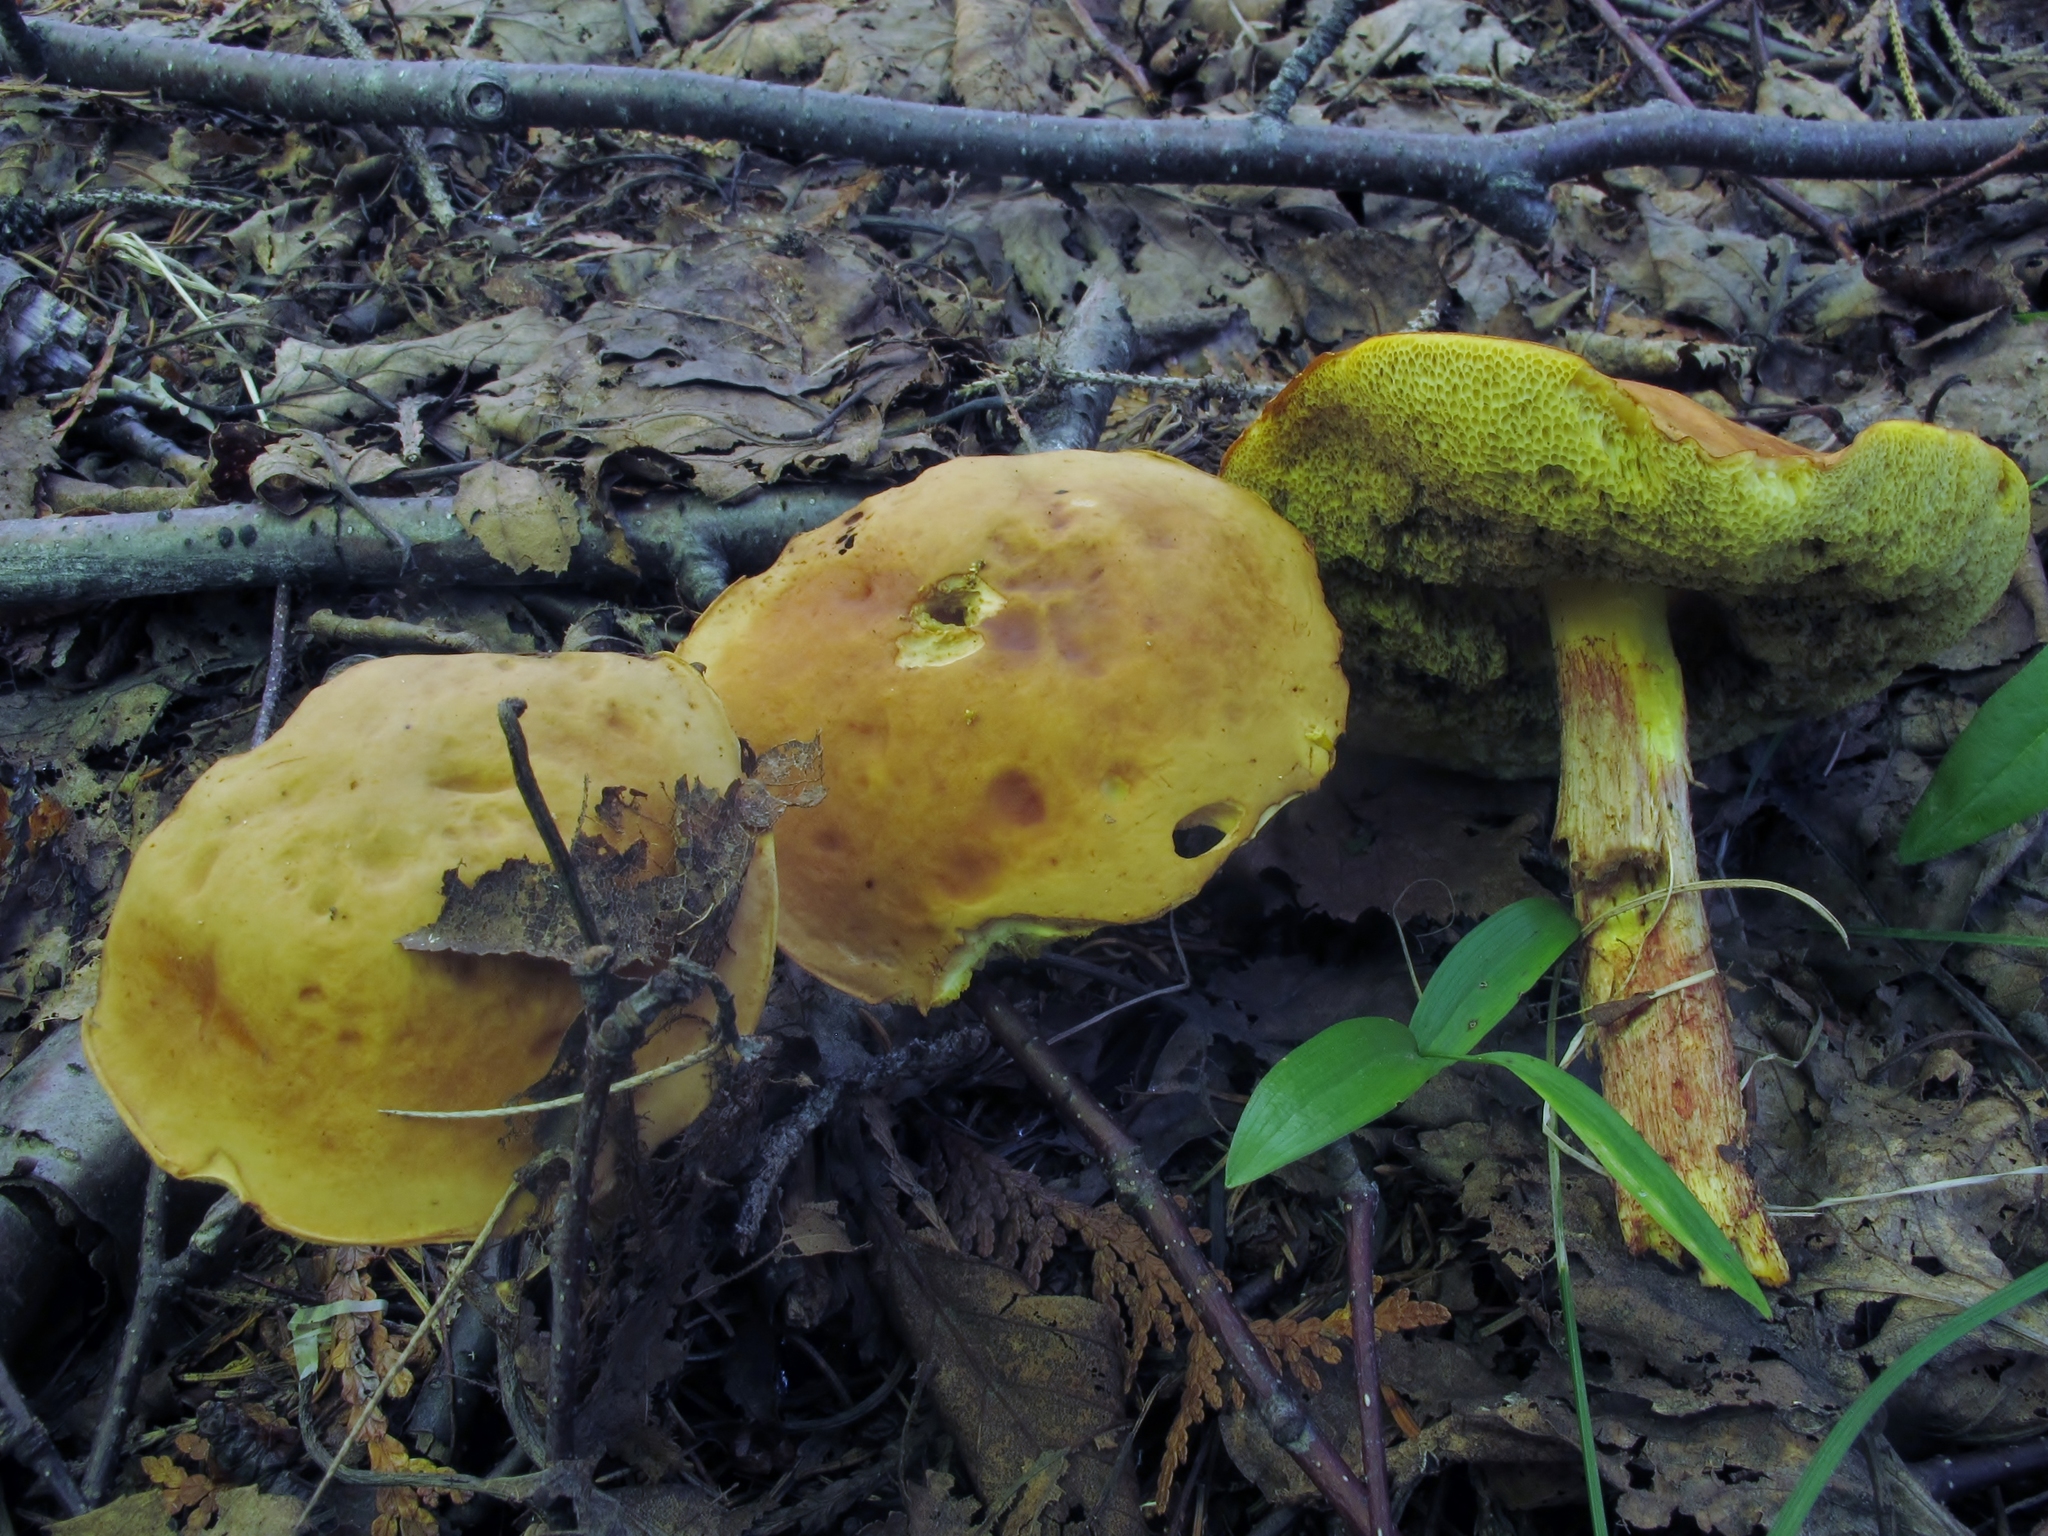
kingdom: Fungi
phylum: Basidiomycota
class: Agaricomycetes
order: Boletales
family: Boletaceae
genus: Hemileccinum
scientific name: Hemileccinum subglabripes
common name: Smoothish-stemmed bolete
